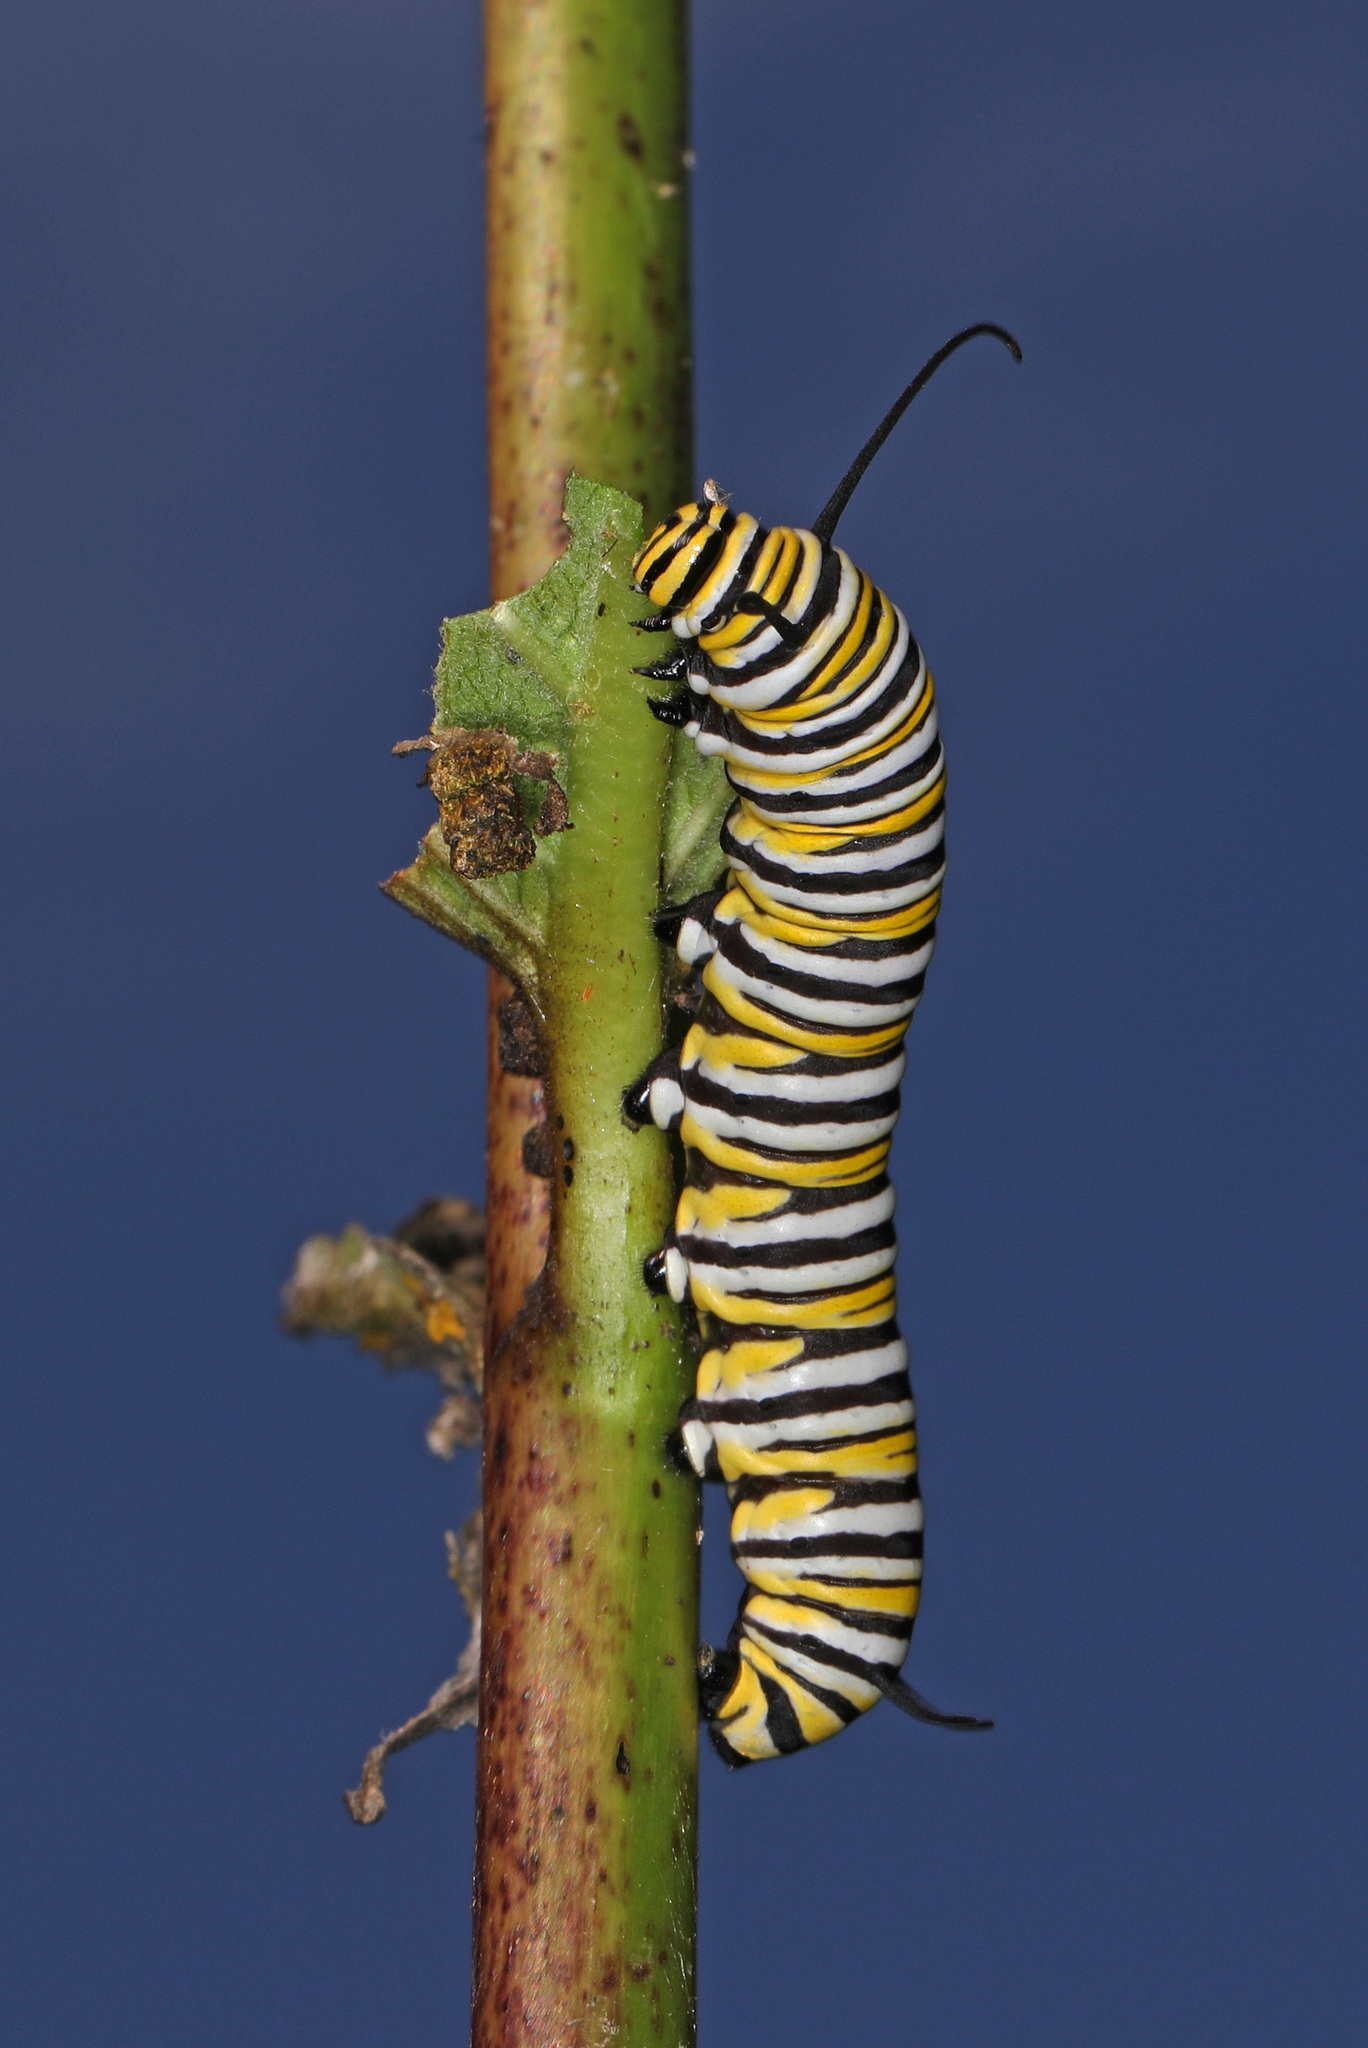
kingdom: Animalia
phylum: Arthropoda
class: Insecta
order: Lepidoptera
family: Nymphalidae
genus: Danaus
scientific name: Danaus plexippus
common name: Monarch
